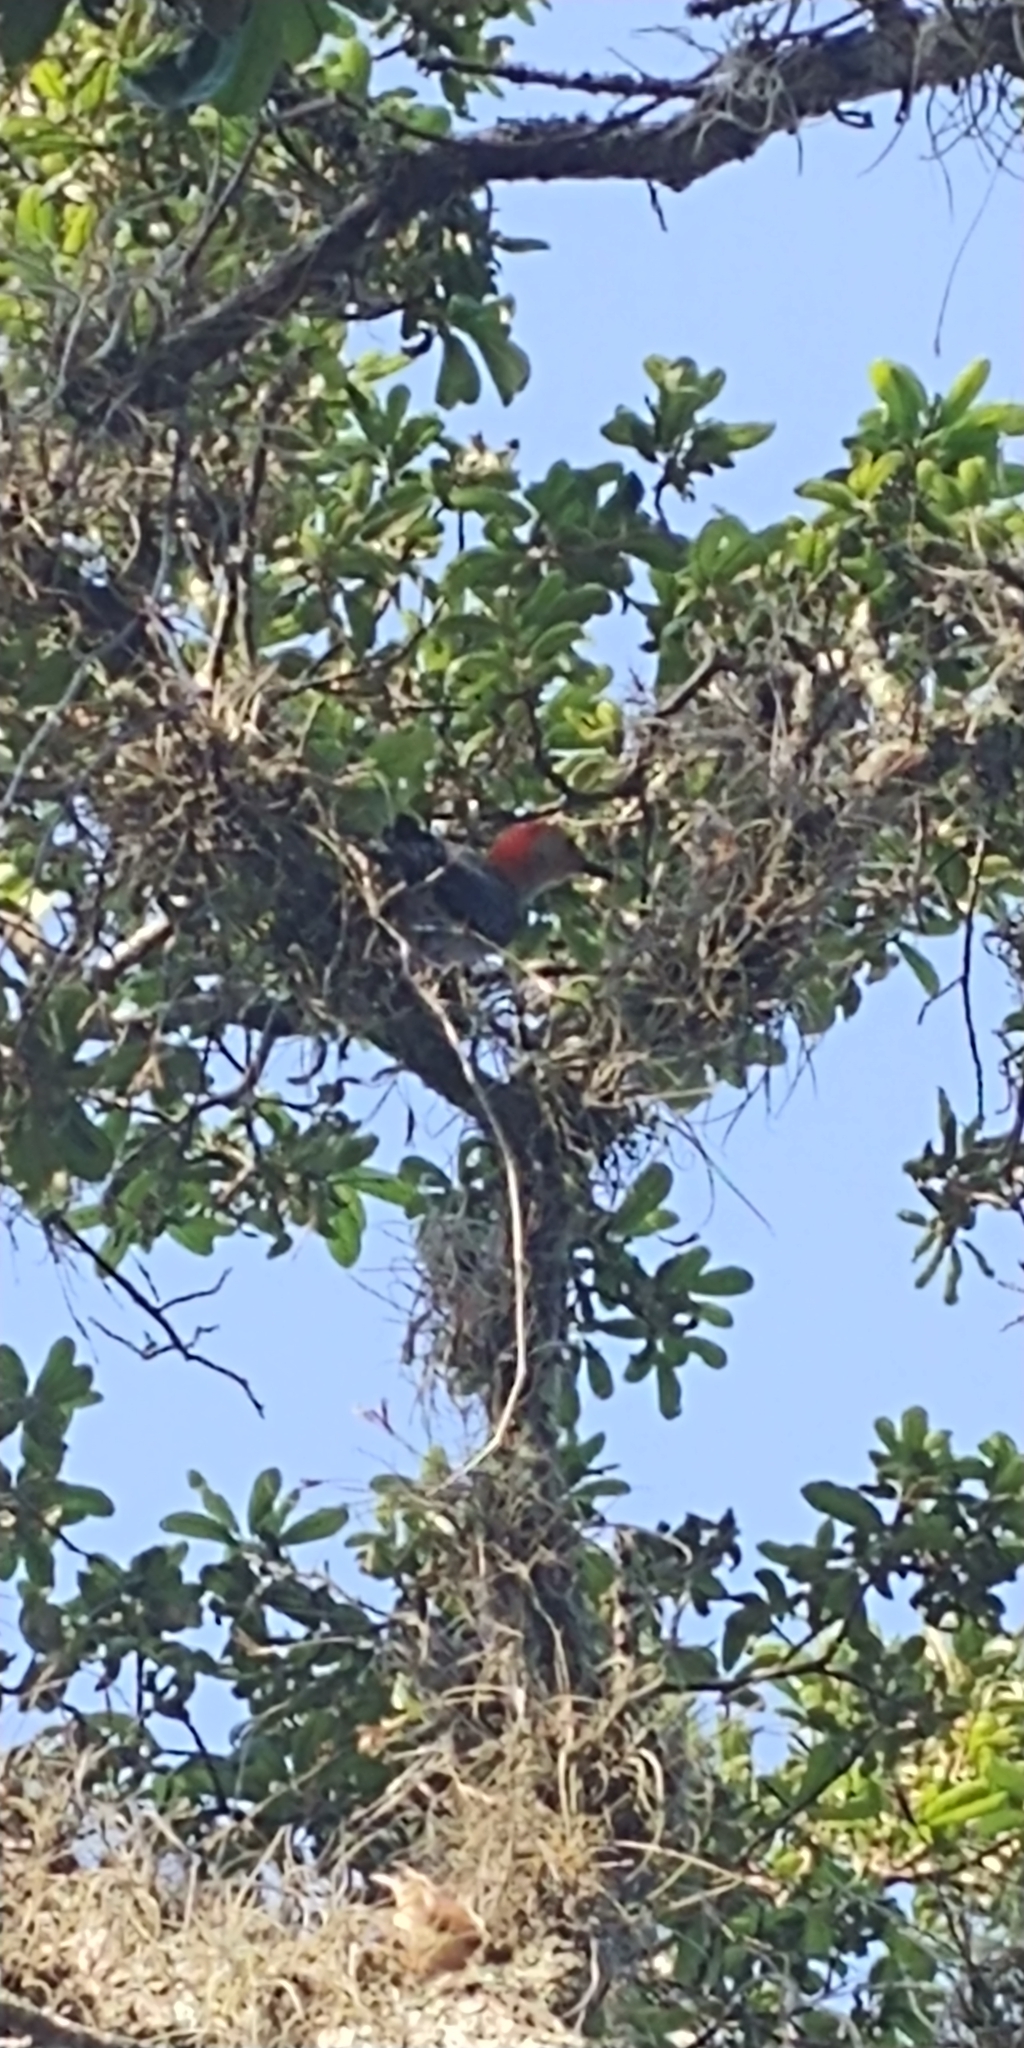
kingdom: Animalia
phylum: Chordata
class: Aves
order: Piciformes
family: Picidae
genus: Melanerpes
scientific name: Melanerpes carolinus
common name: Red-bellied woodpecker
